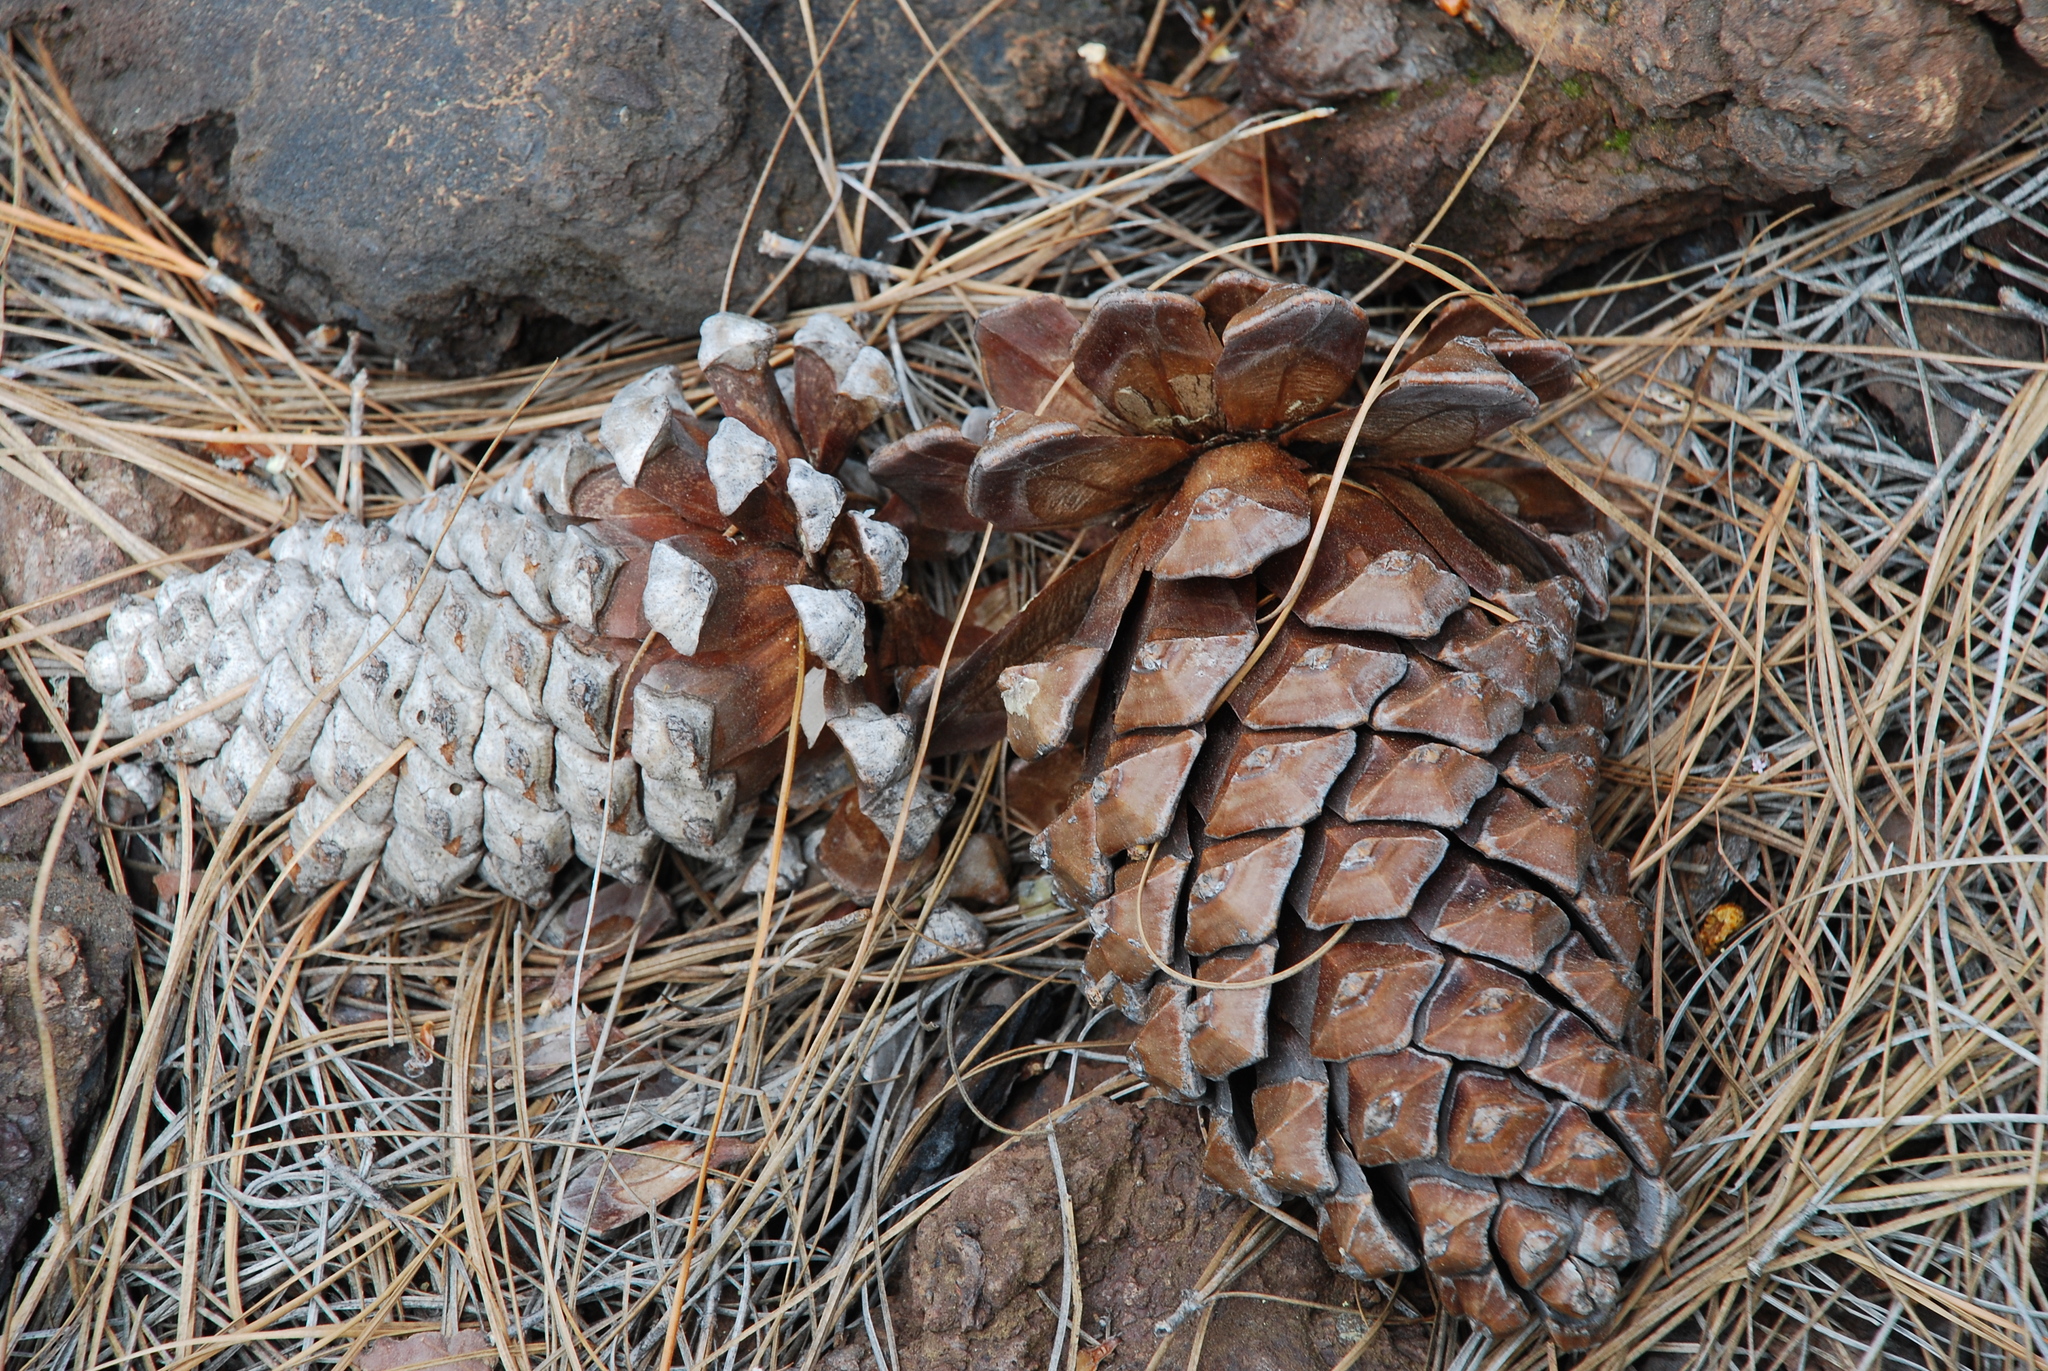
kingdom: Plantae
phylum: Tracheophyta
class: Pinopsida
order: Pinales
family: Pinaceae
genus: Pinus
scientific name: Pinus canariensis
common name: Canary islands pine
